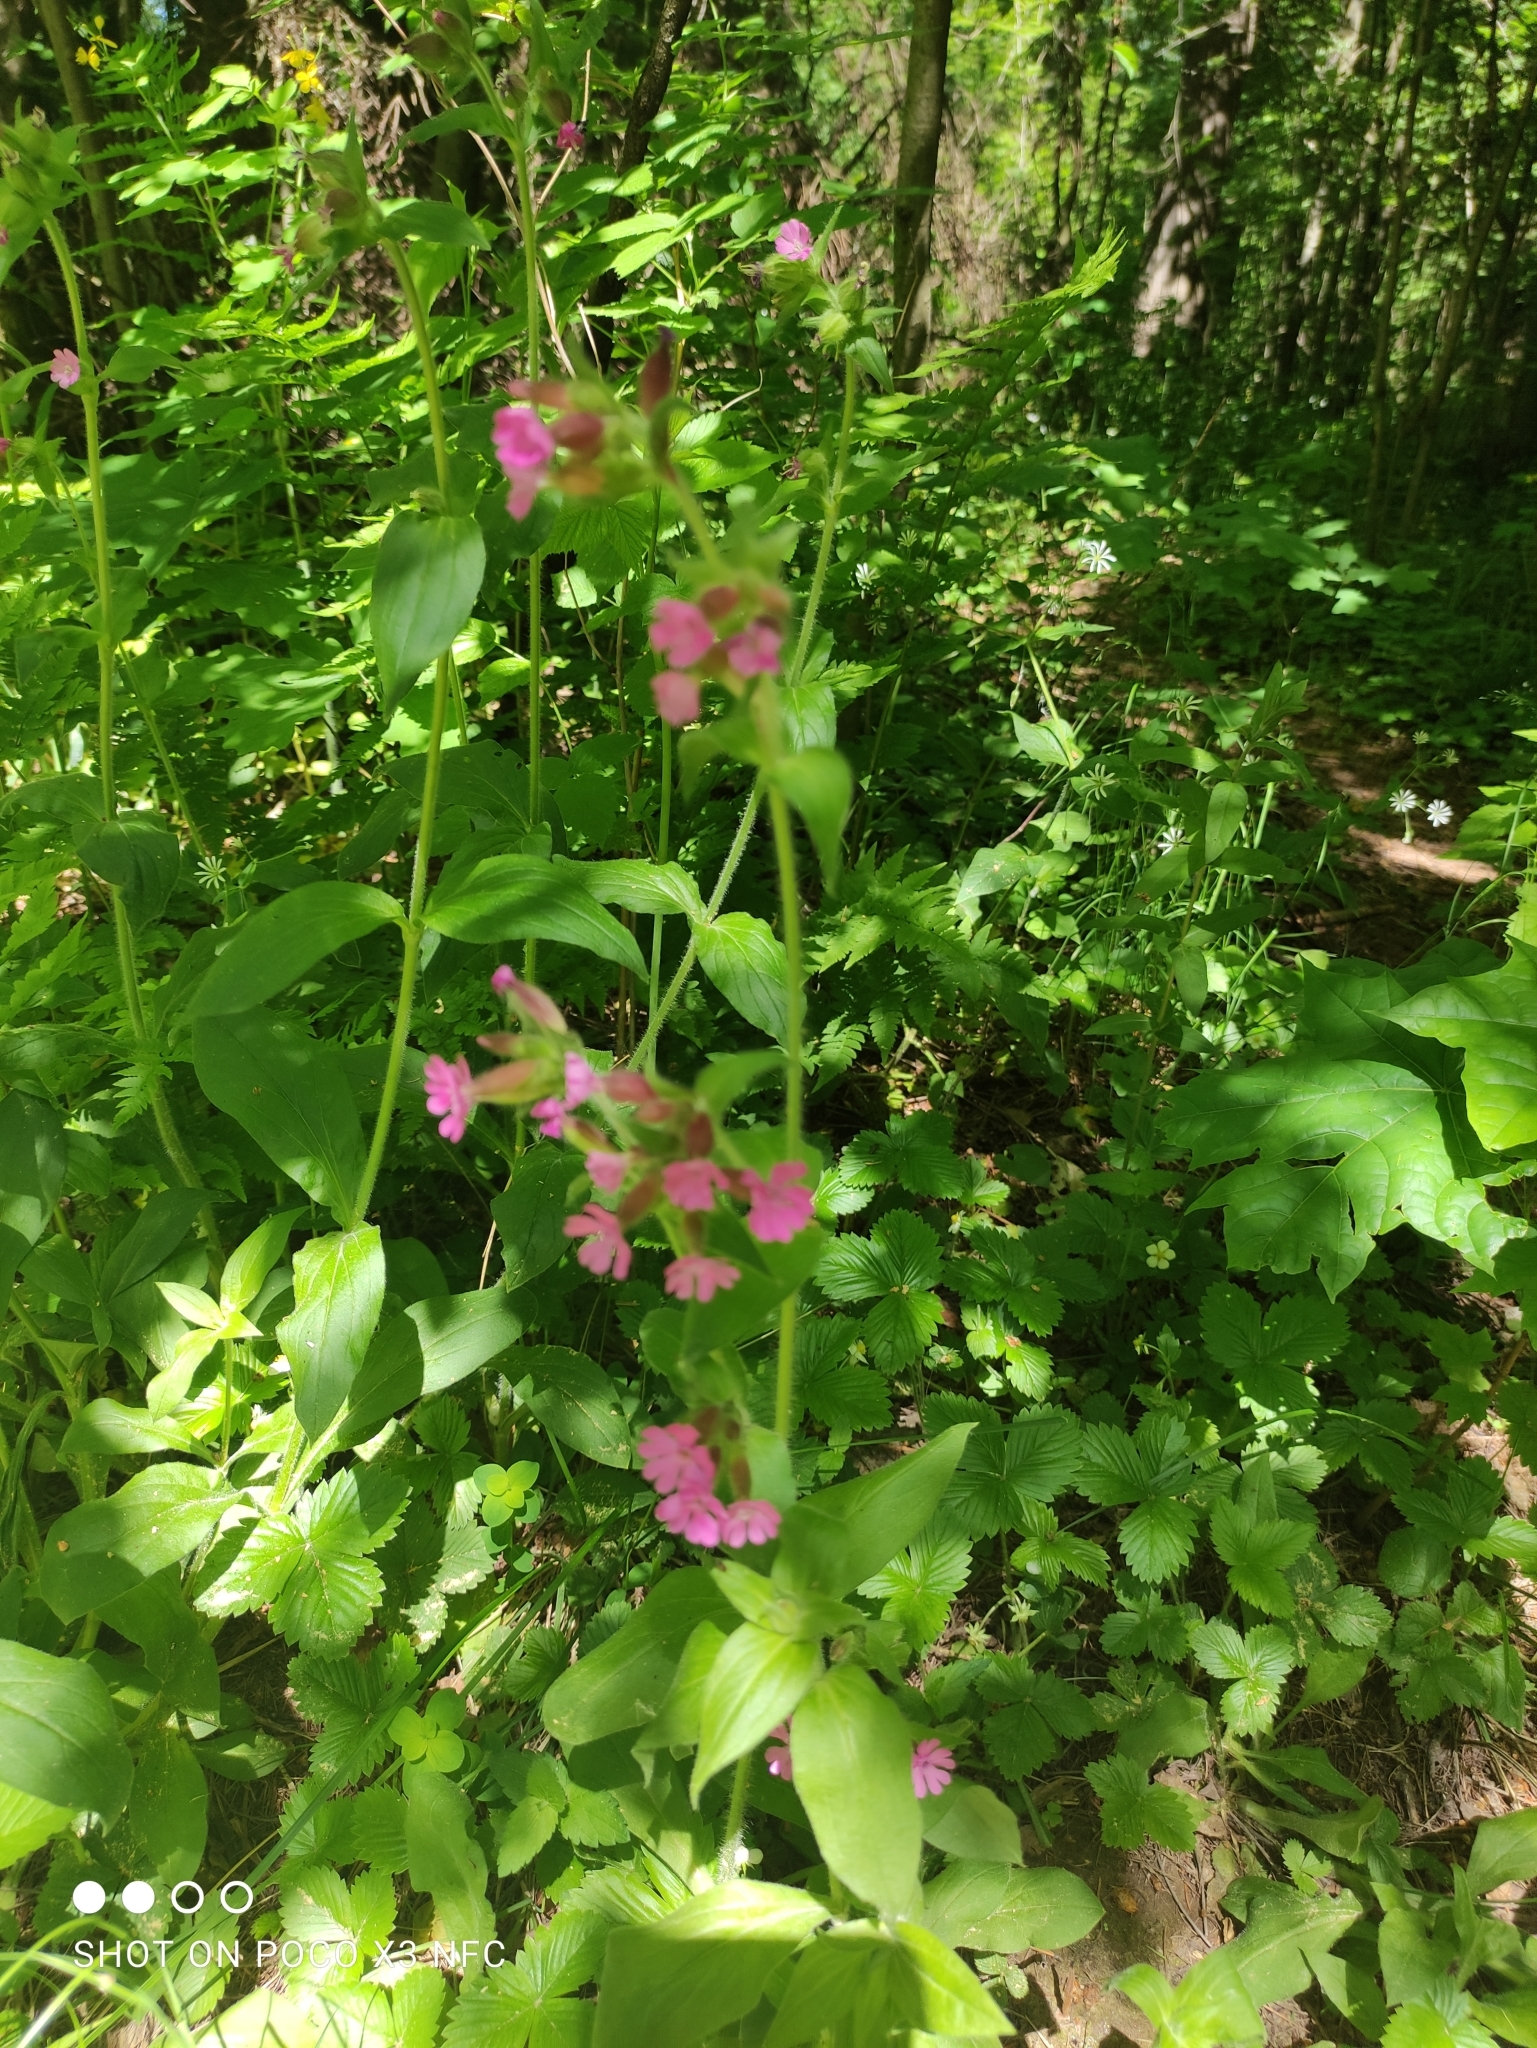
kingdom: Plantae
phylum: Tracheophyta
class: Magnoliopsida
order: Caryophyllales
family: Caryophyllaceae
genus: Silene
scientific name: Silene dioica
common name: Red campion
